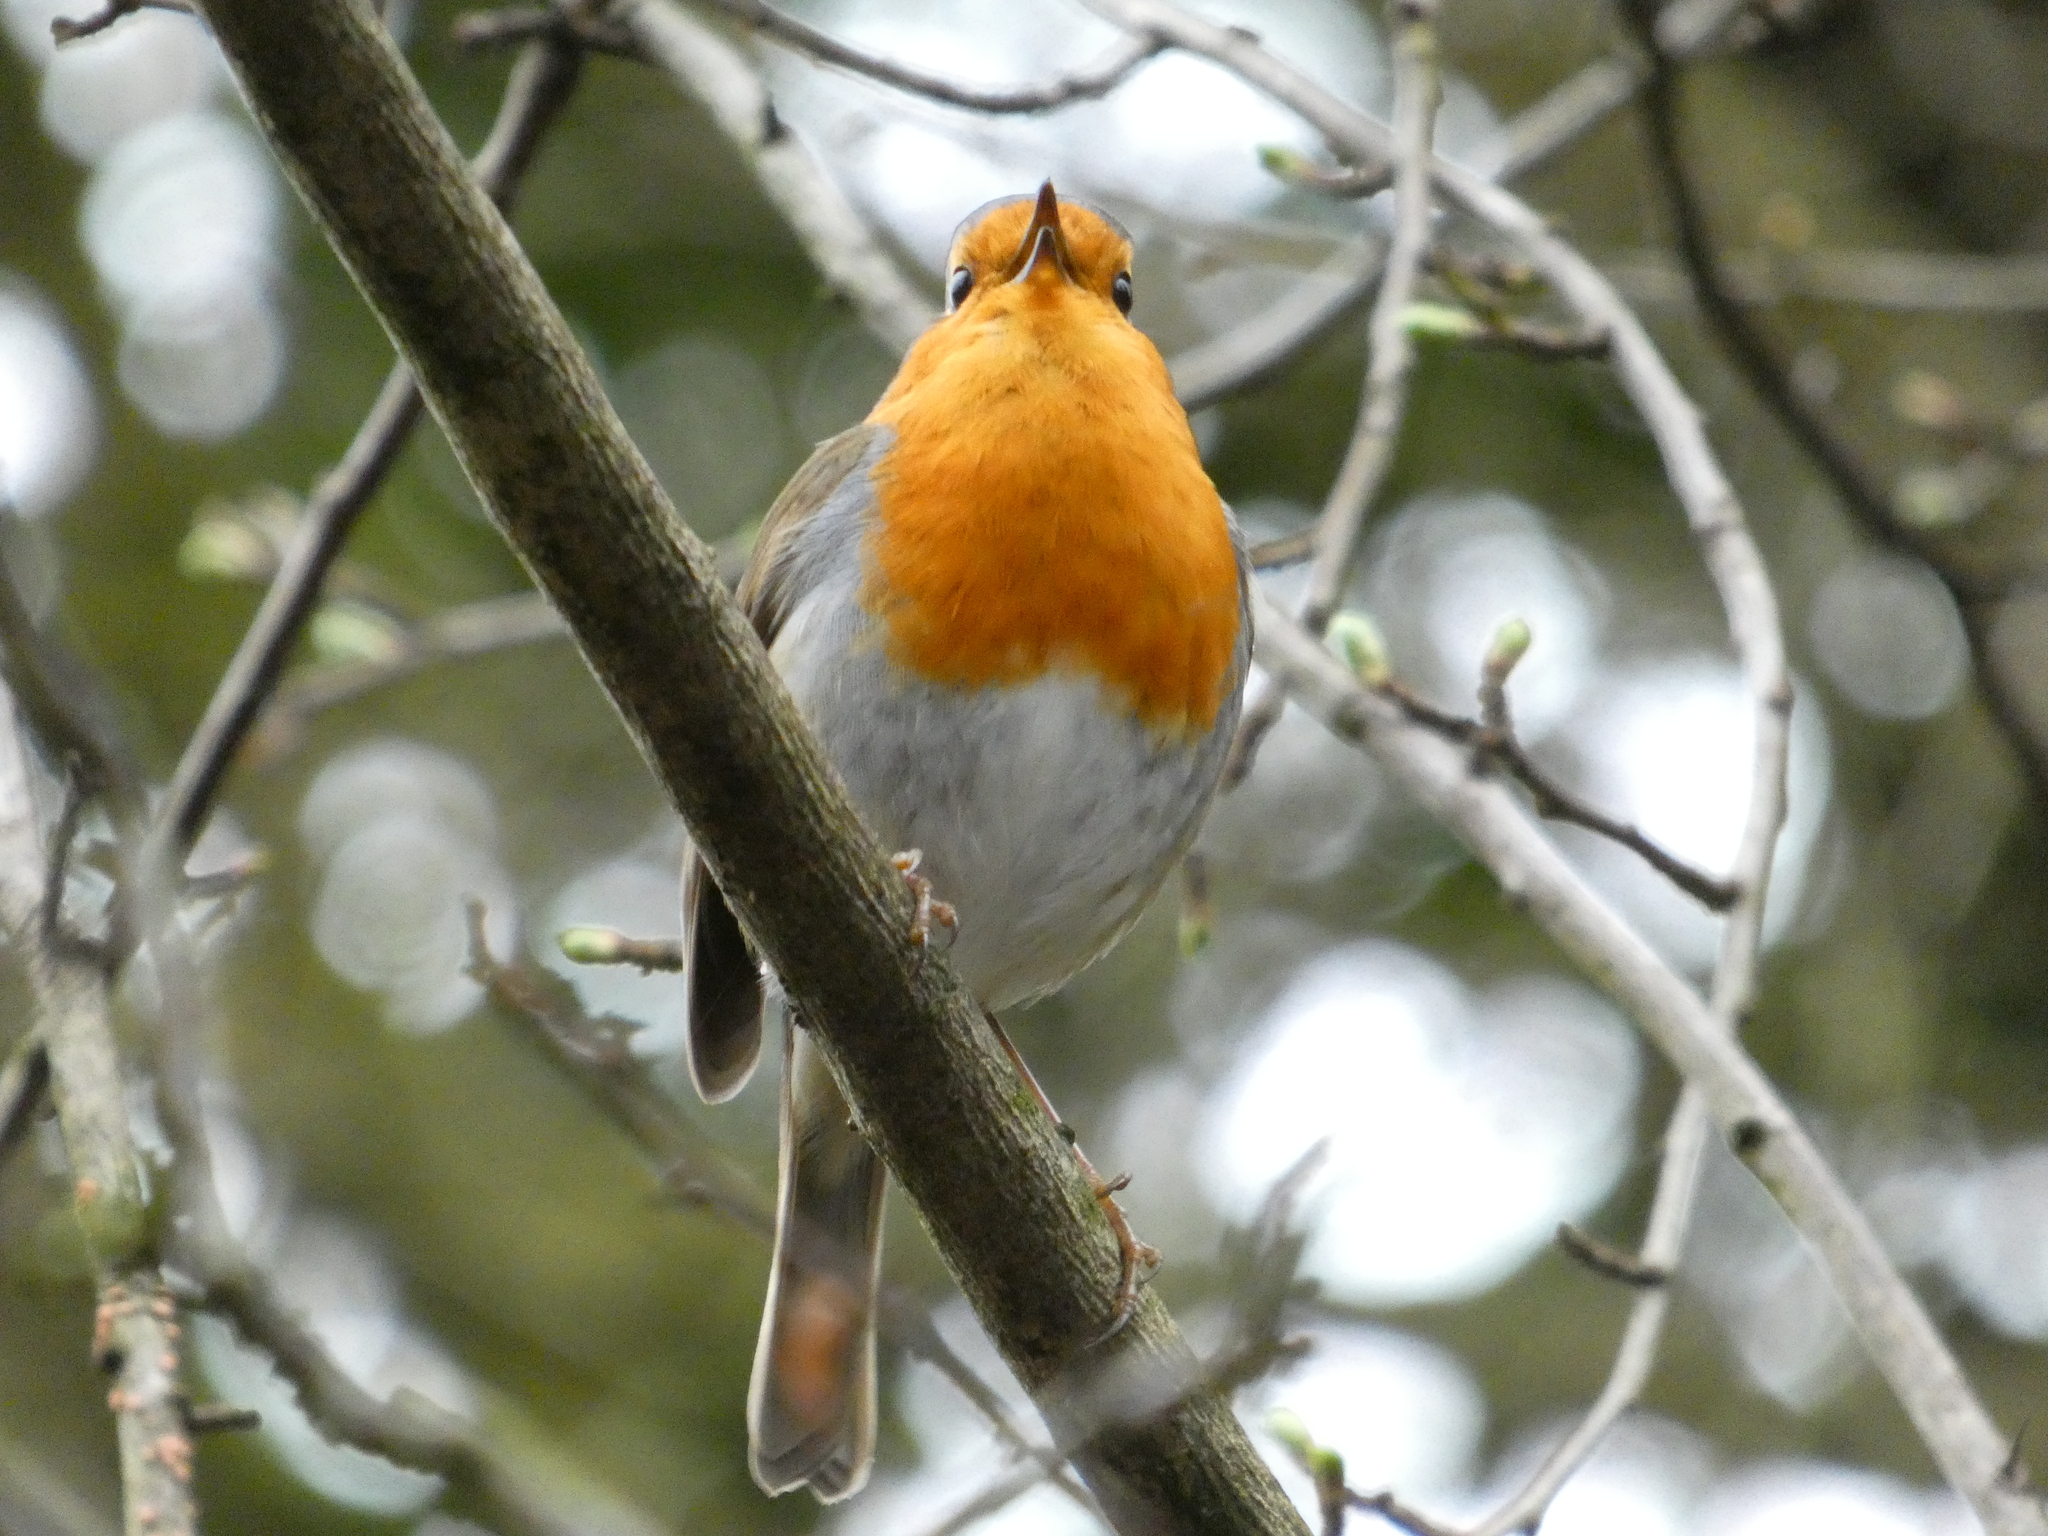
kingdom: Animalia
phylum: Chordata
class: Aves
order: Passeriformes
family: Muscicapidae
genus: Erithacus
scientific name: Erithacus rubecula
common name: European robin
